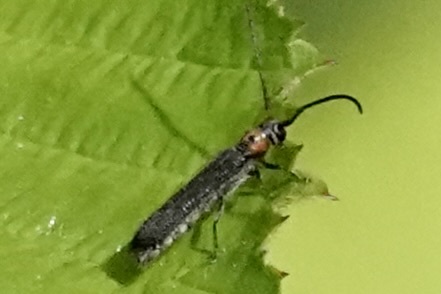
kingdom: Animalia
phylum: Arthropoda
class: Insecta
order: Coleoptera
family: Cerambycidae
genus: Oberea
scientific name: Oberea perspicillata
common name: Raspberry cane borer
